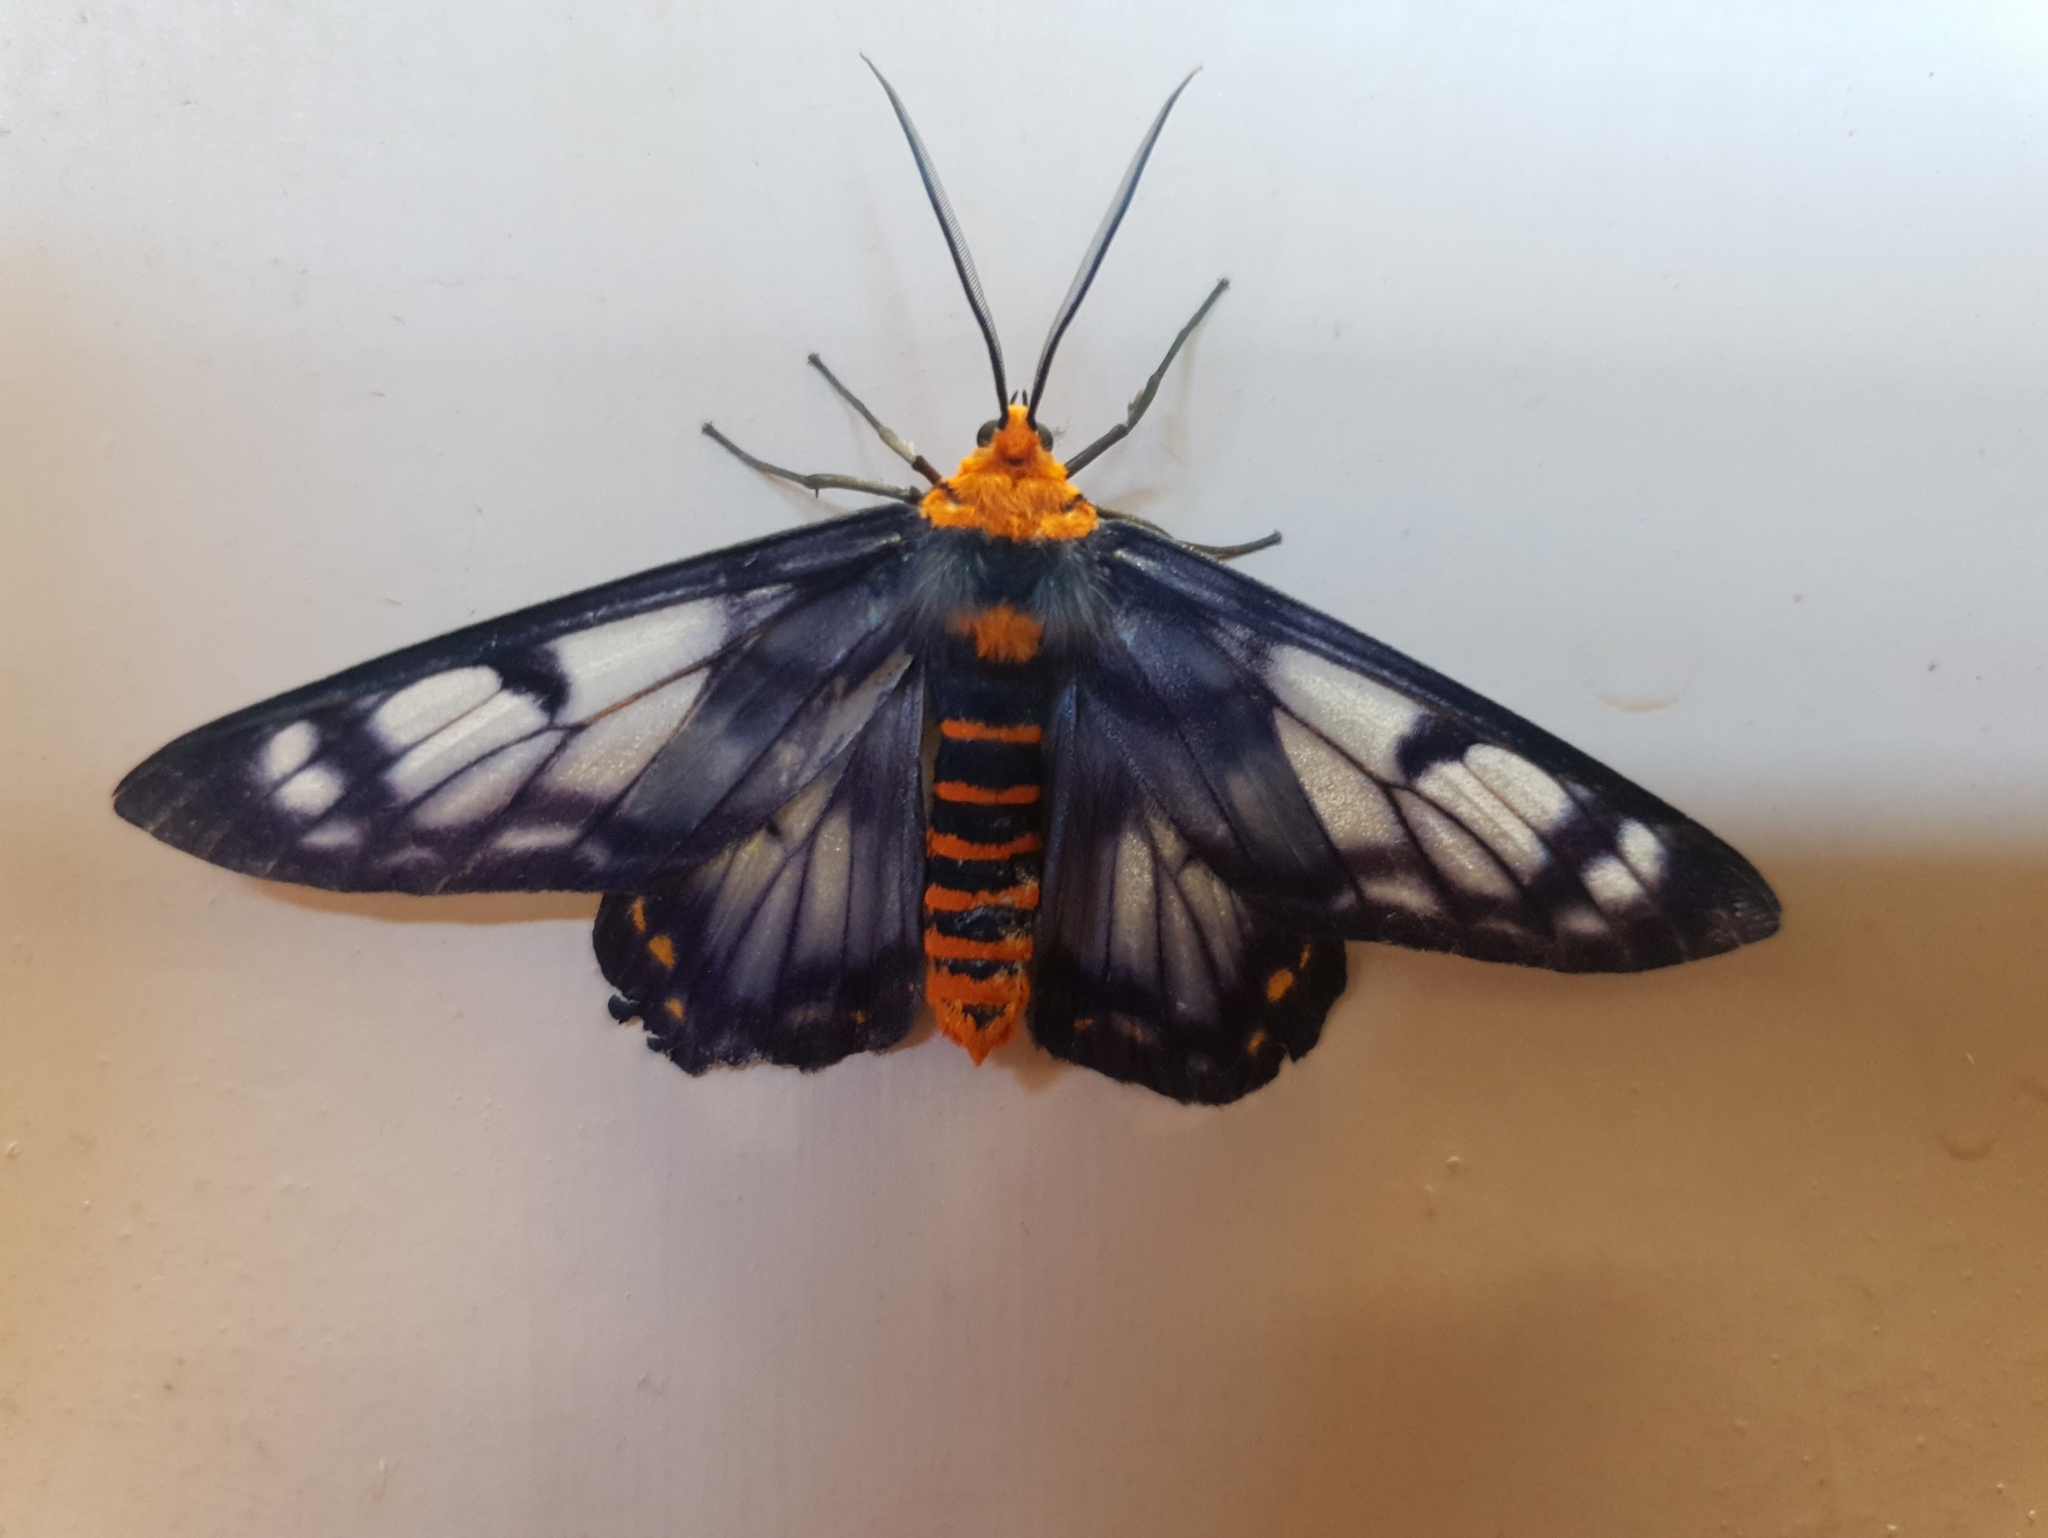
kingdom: Animalia
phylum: Arthropoda
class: Insecta
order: Lepidoptera
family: Geometridae
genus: Dysphania
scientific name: Dysphania numana
